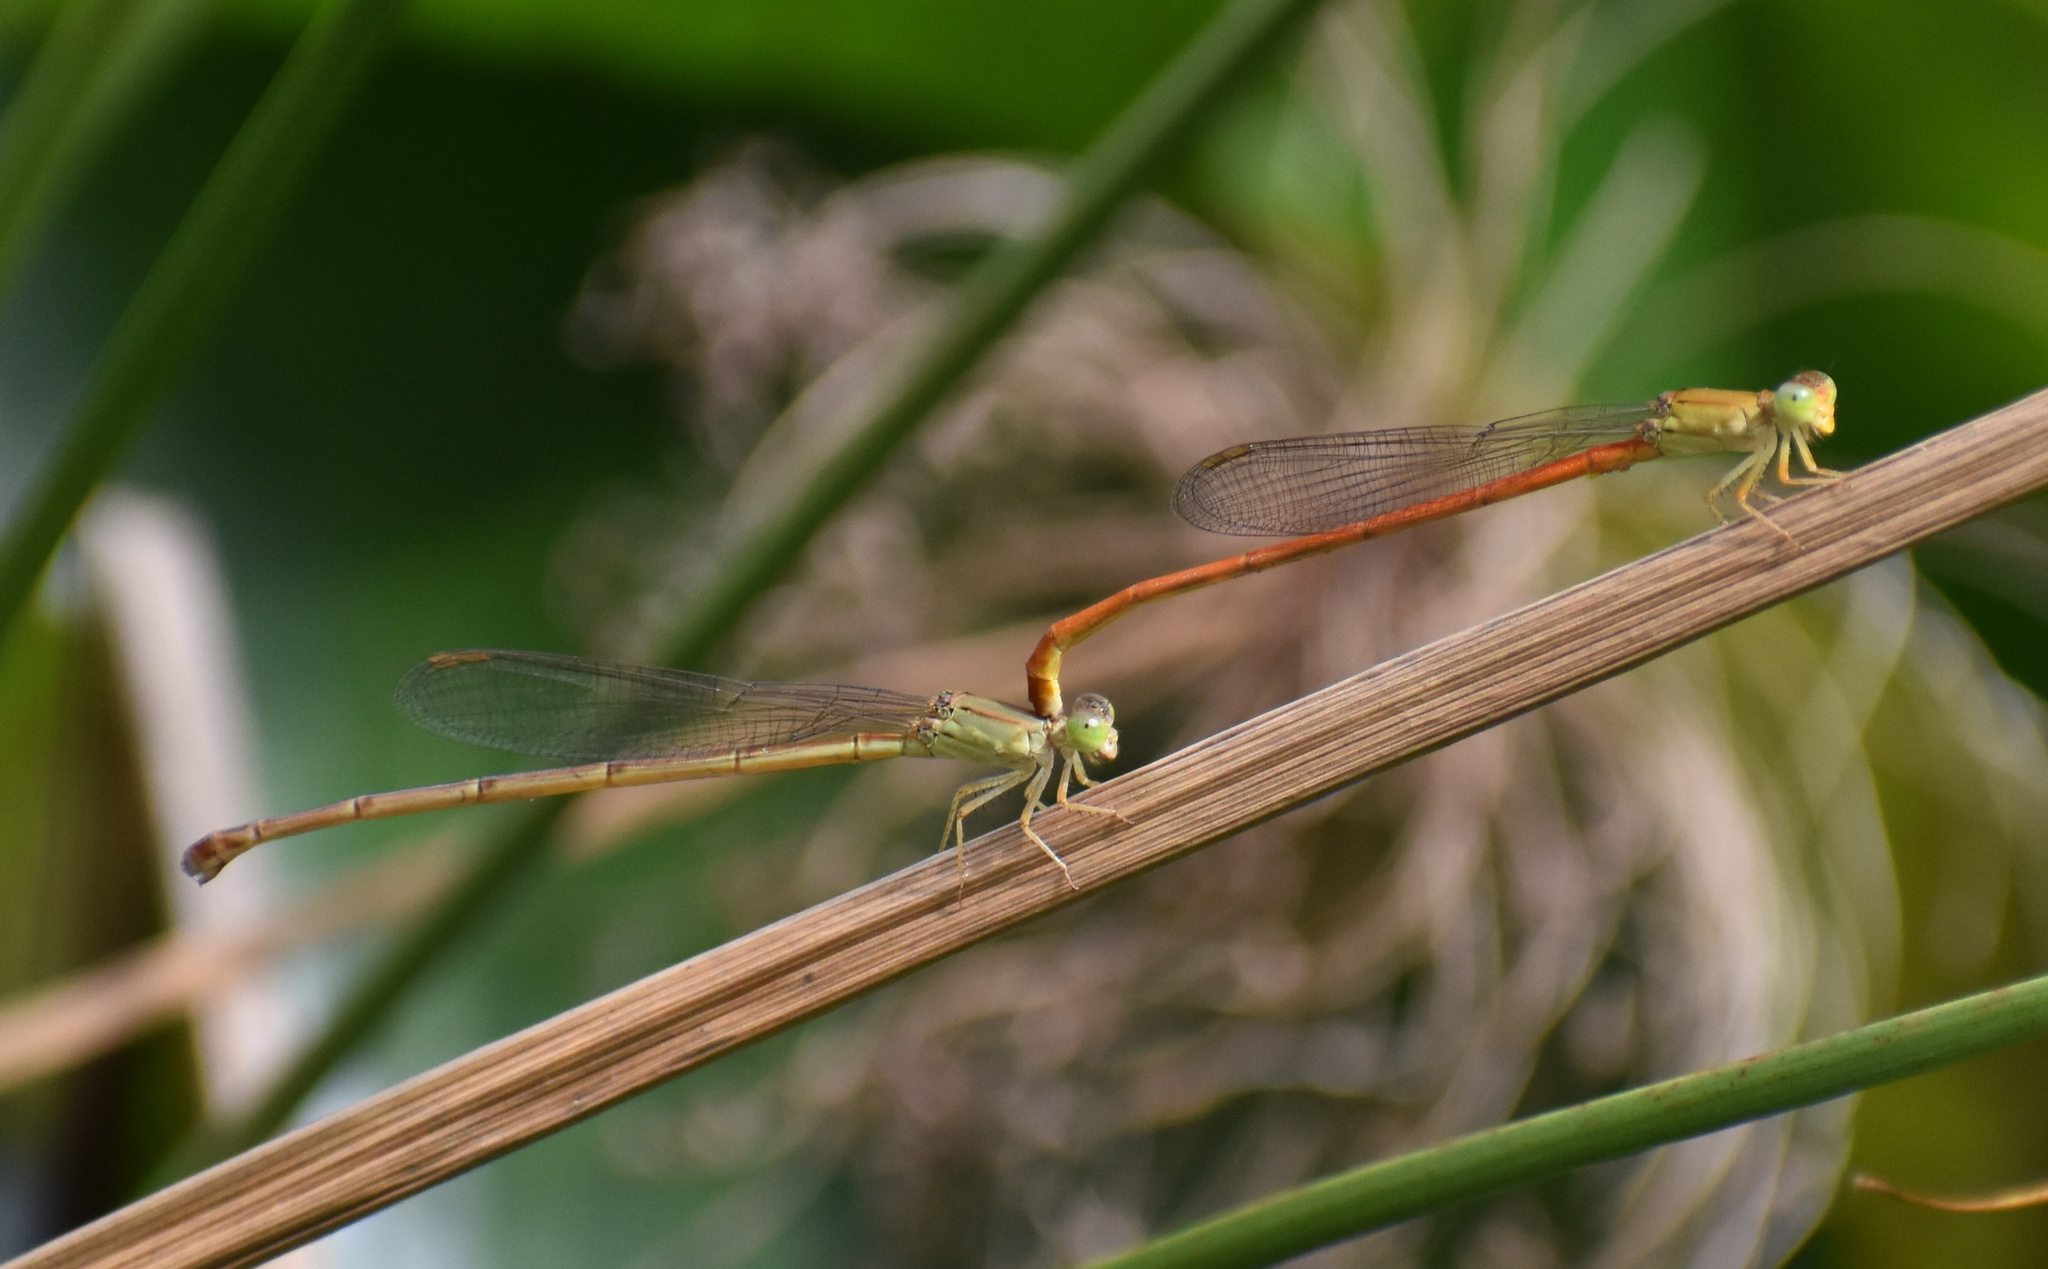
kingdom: Animalia
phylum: Arthropoda
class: Insecta
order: Odonata
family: Coenagrionidae
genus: Ceriagrion
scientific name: Ceriagrion glabrum
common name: Common pond damsel
